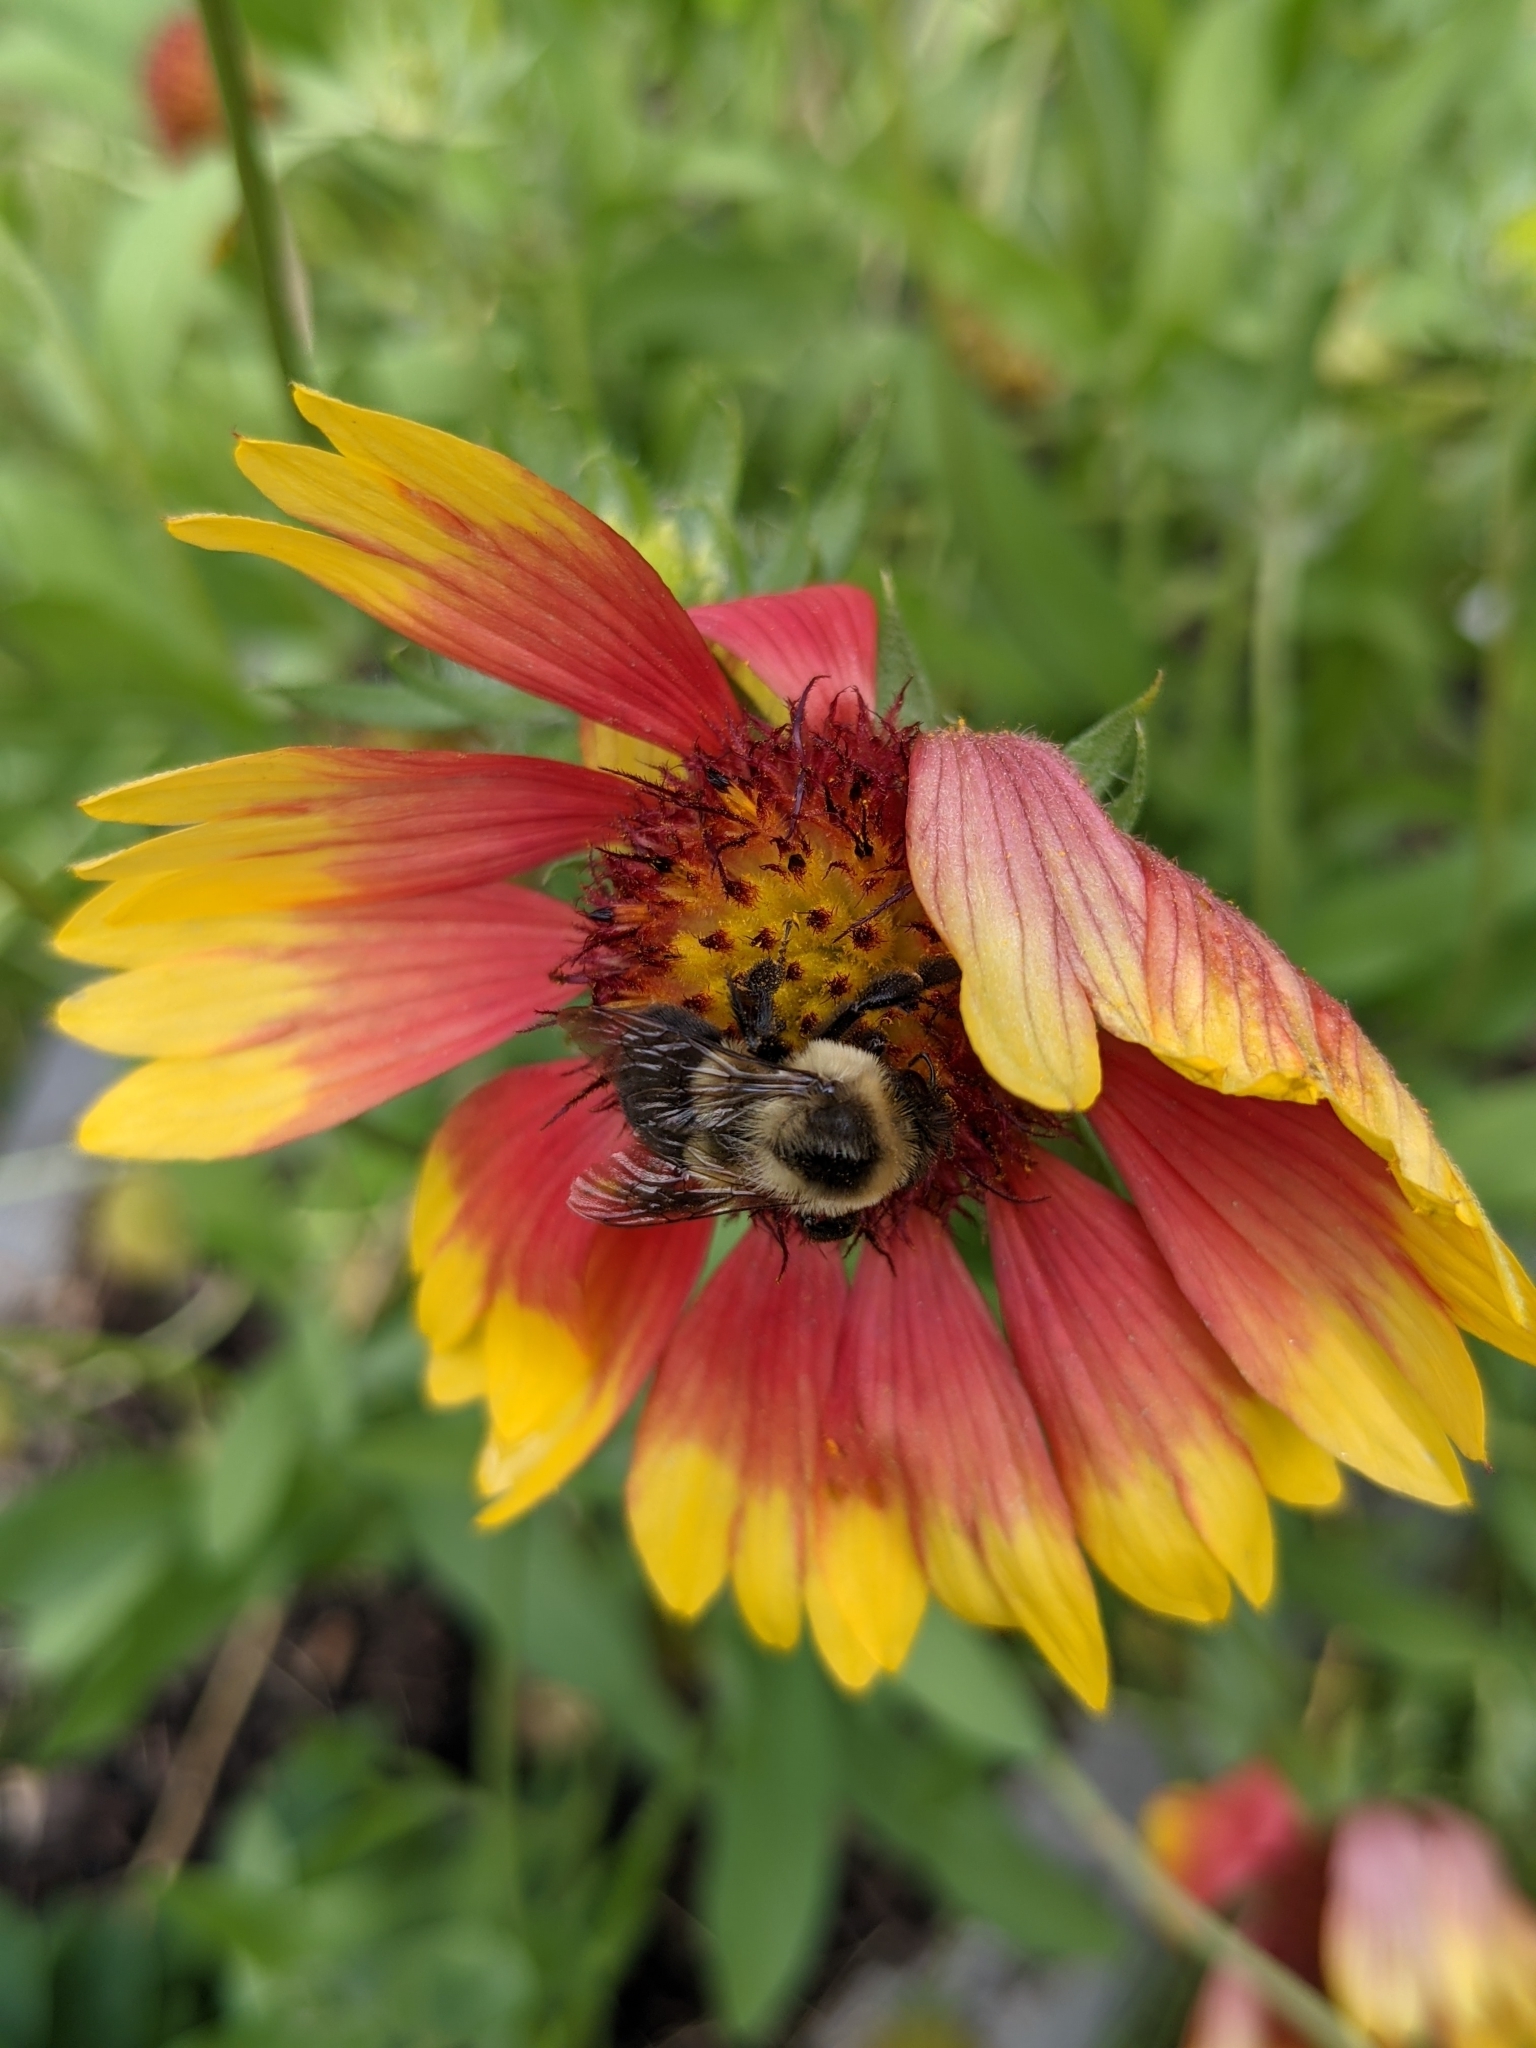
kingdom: Animalia
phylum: Arthropoda
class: Insecta
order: Hymenoptera
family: Apidae
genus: Bombus
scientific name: Bombus impatiens
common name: Common eastern bumble bee
